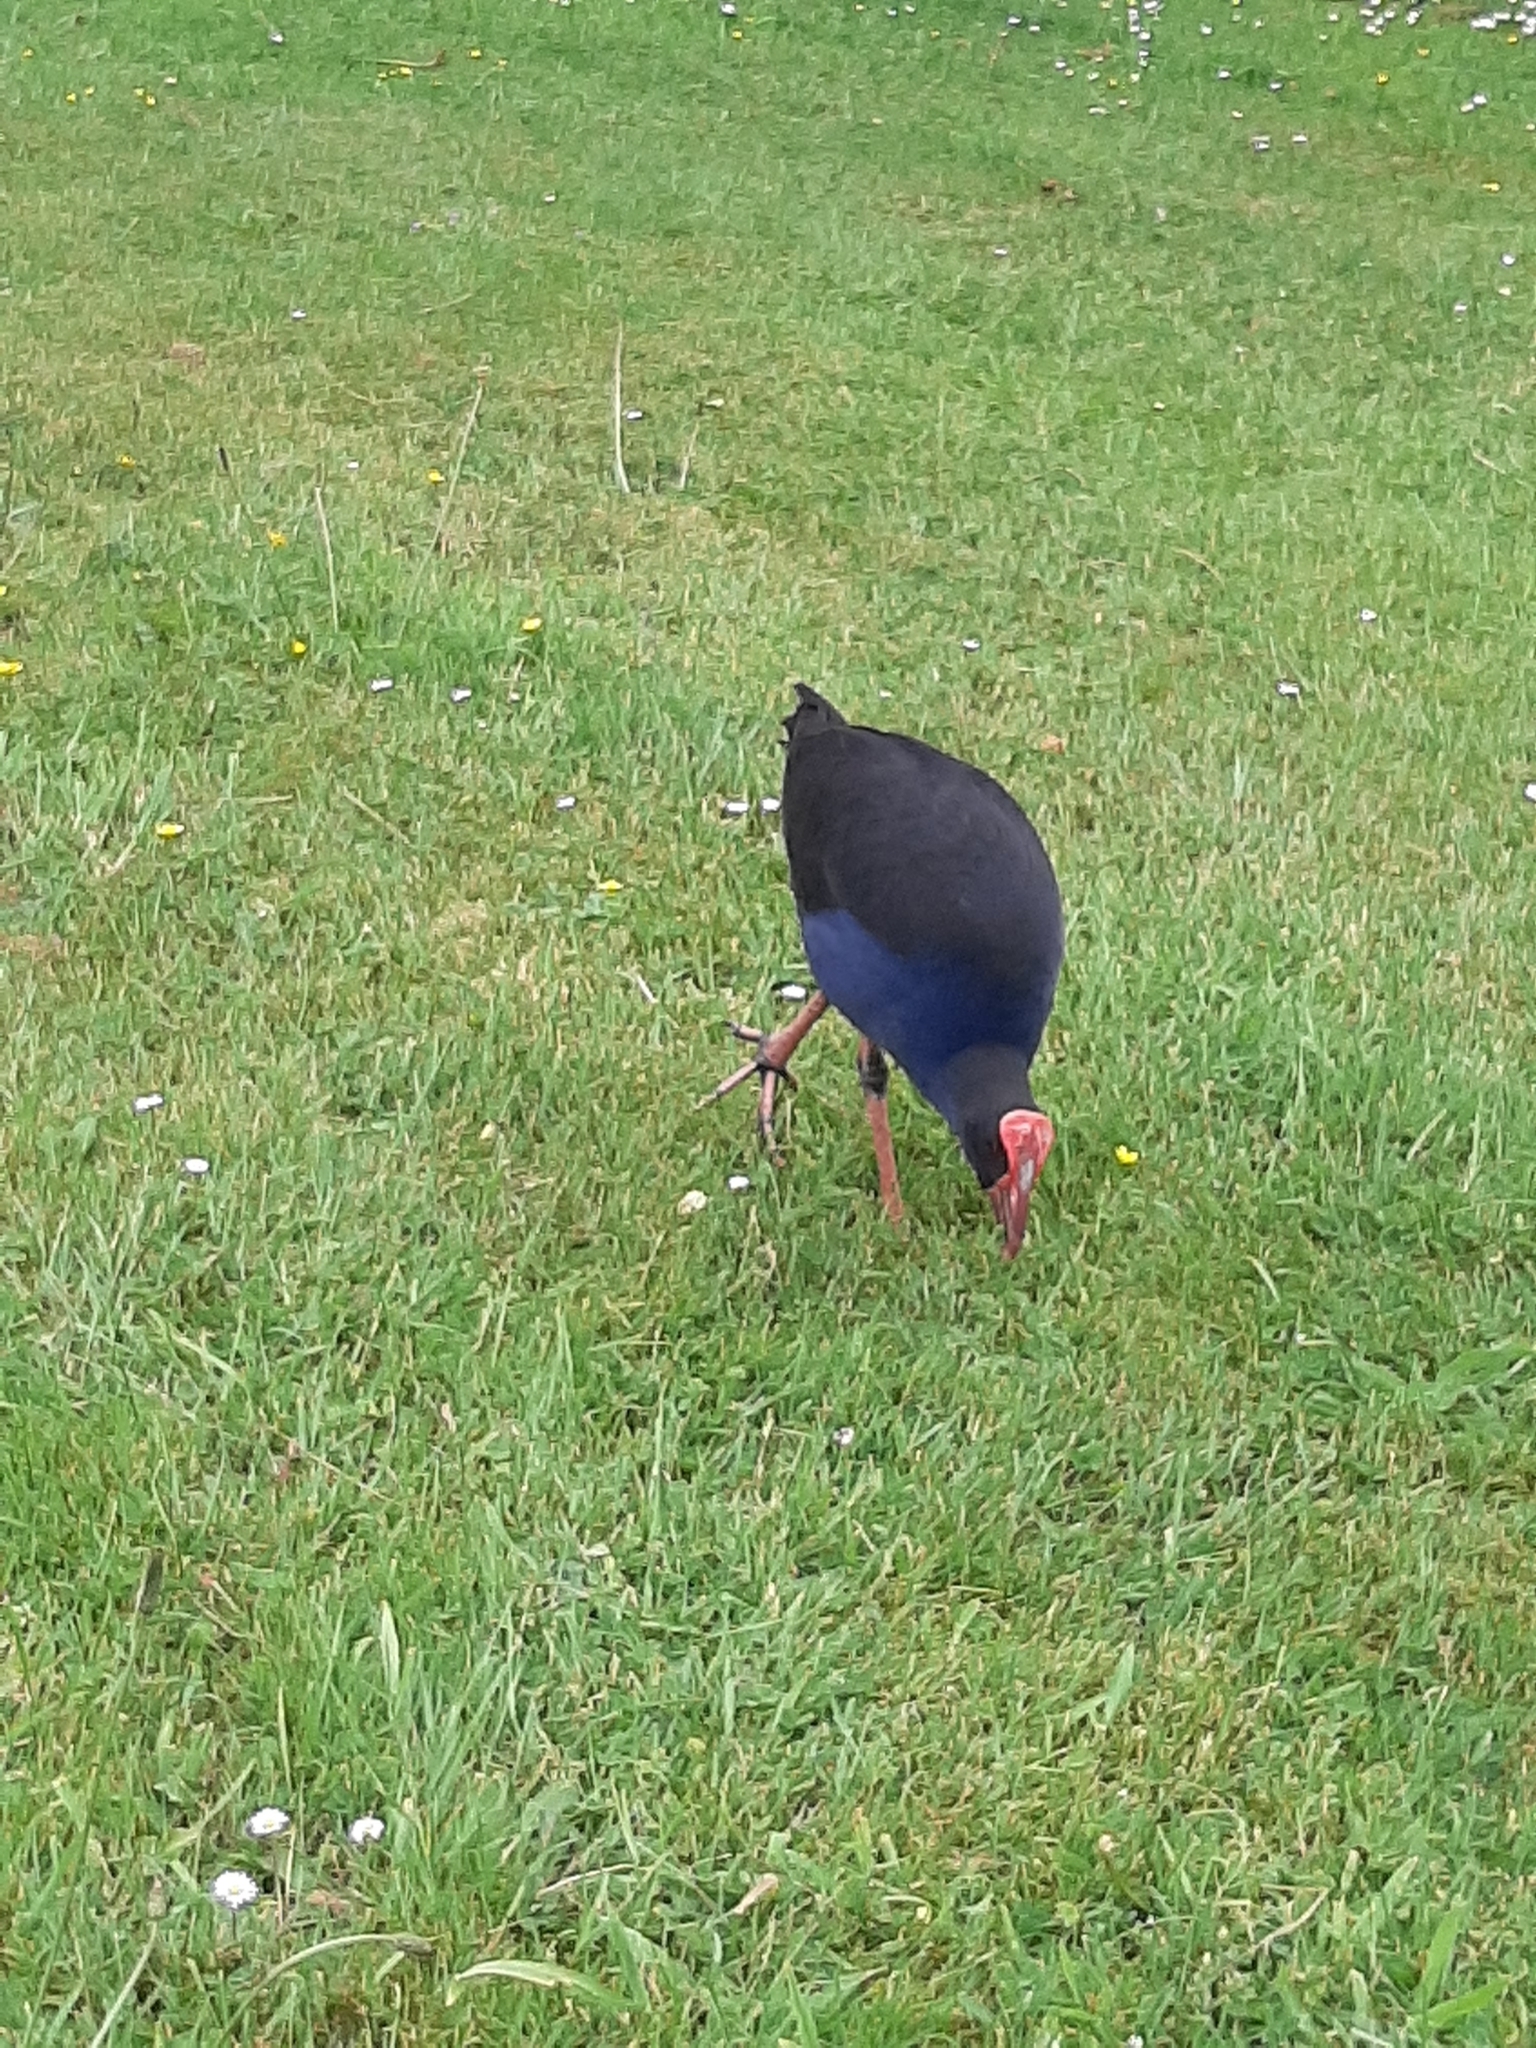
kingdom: Animalia
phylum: Chordata
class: Aves
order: Gruiformes
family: Rallidae
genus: Porphyrio
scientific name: Porphyrio melanotus
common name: Australasian swamphen
